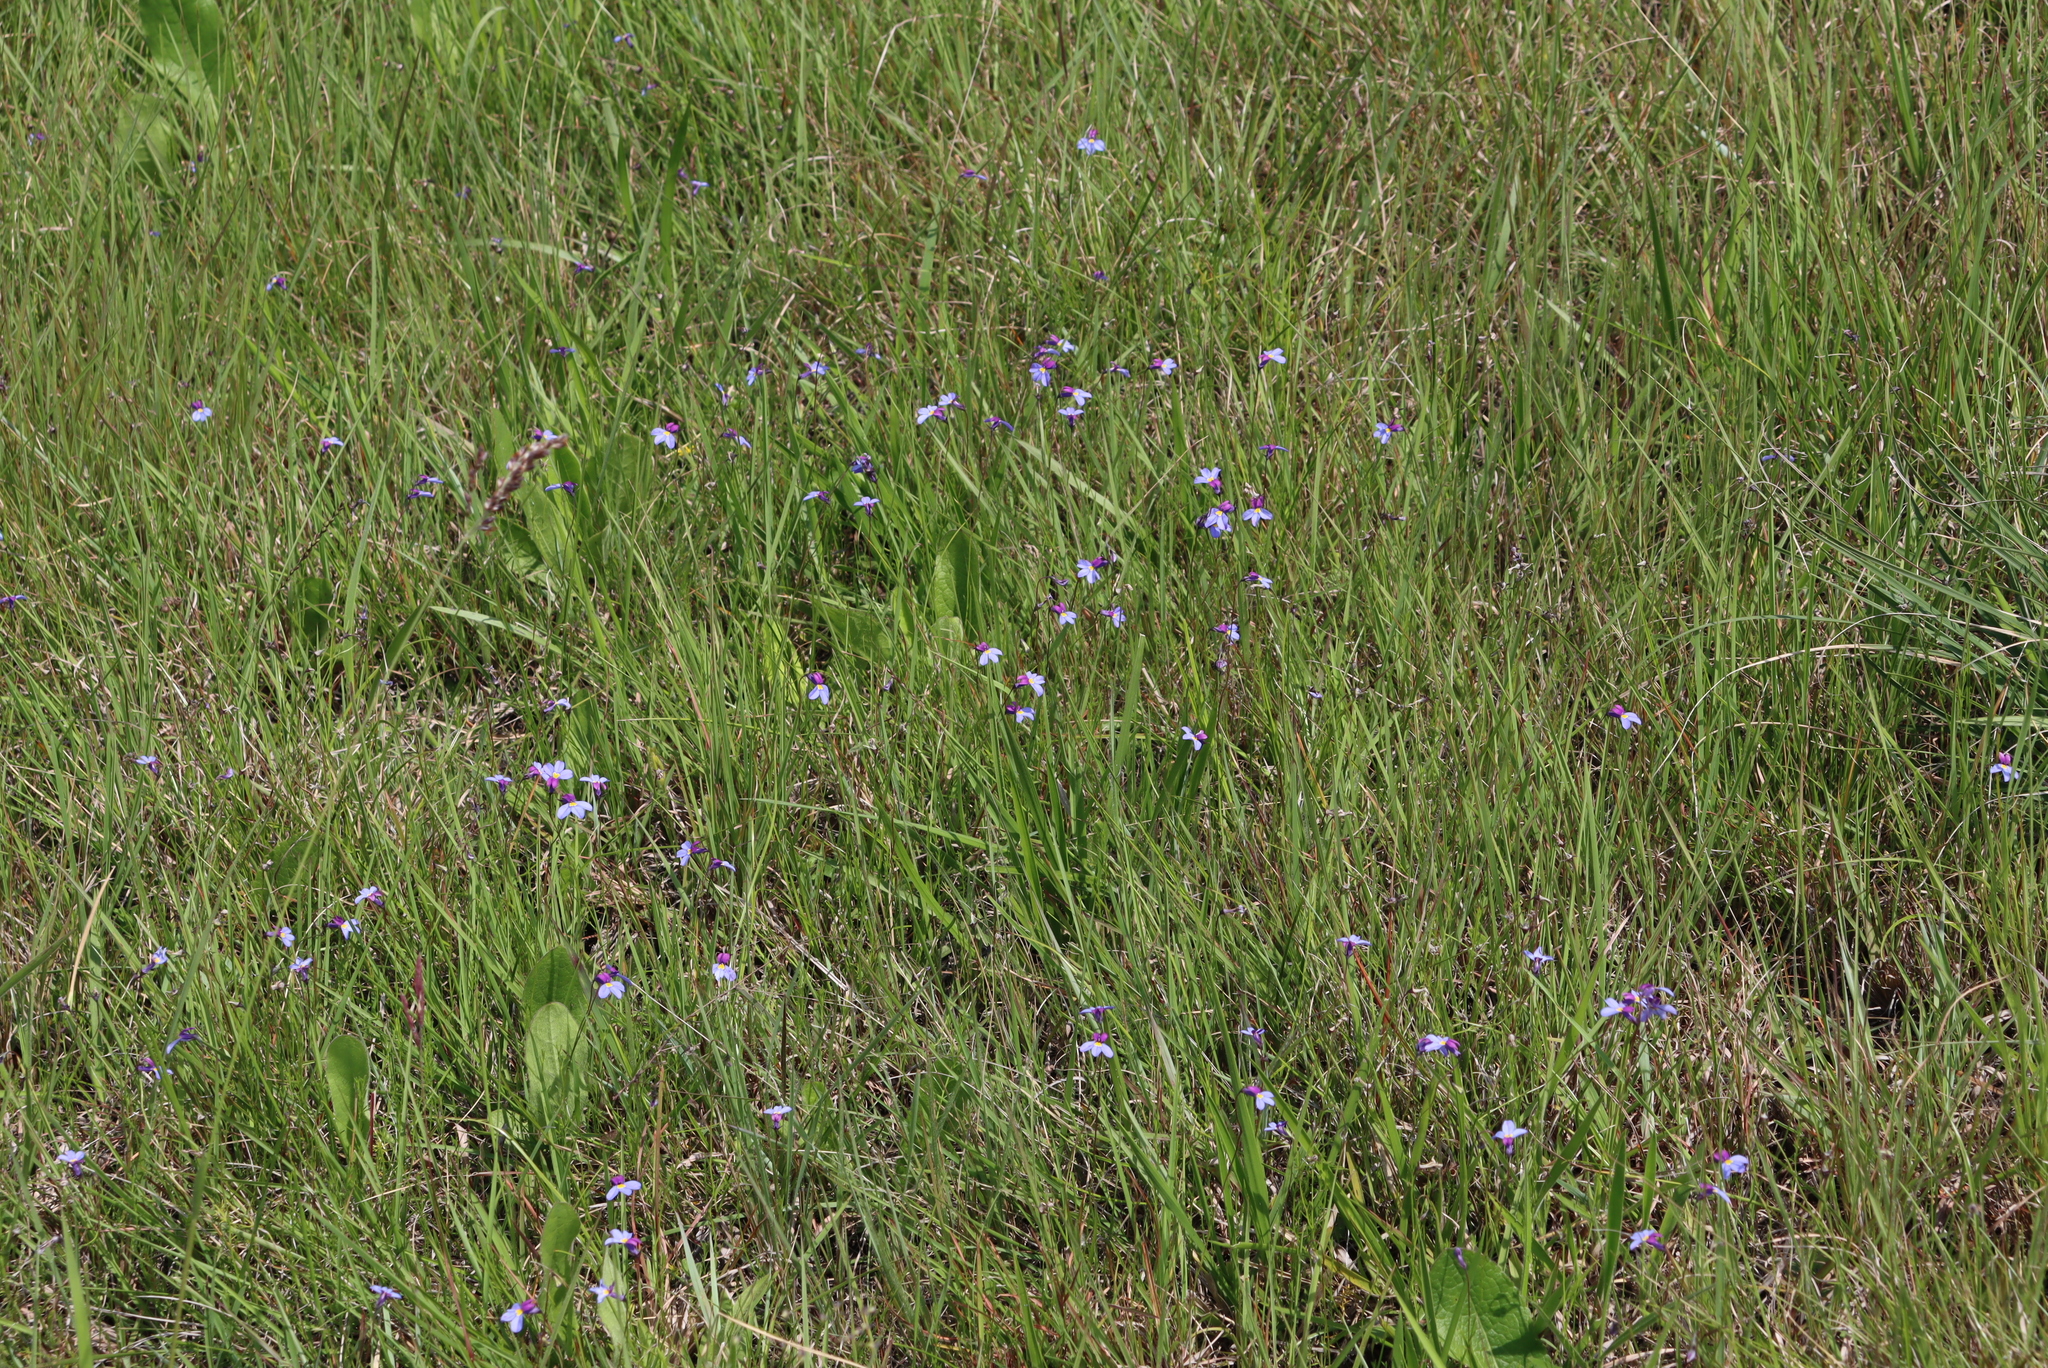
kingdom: Plantae
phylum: Tracheophyta
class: Magnoliopsida
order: Asterales
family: Campanulaceae
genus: Monopsis
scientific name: Monopsis decipiens
